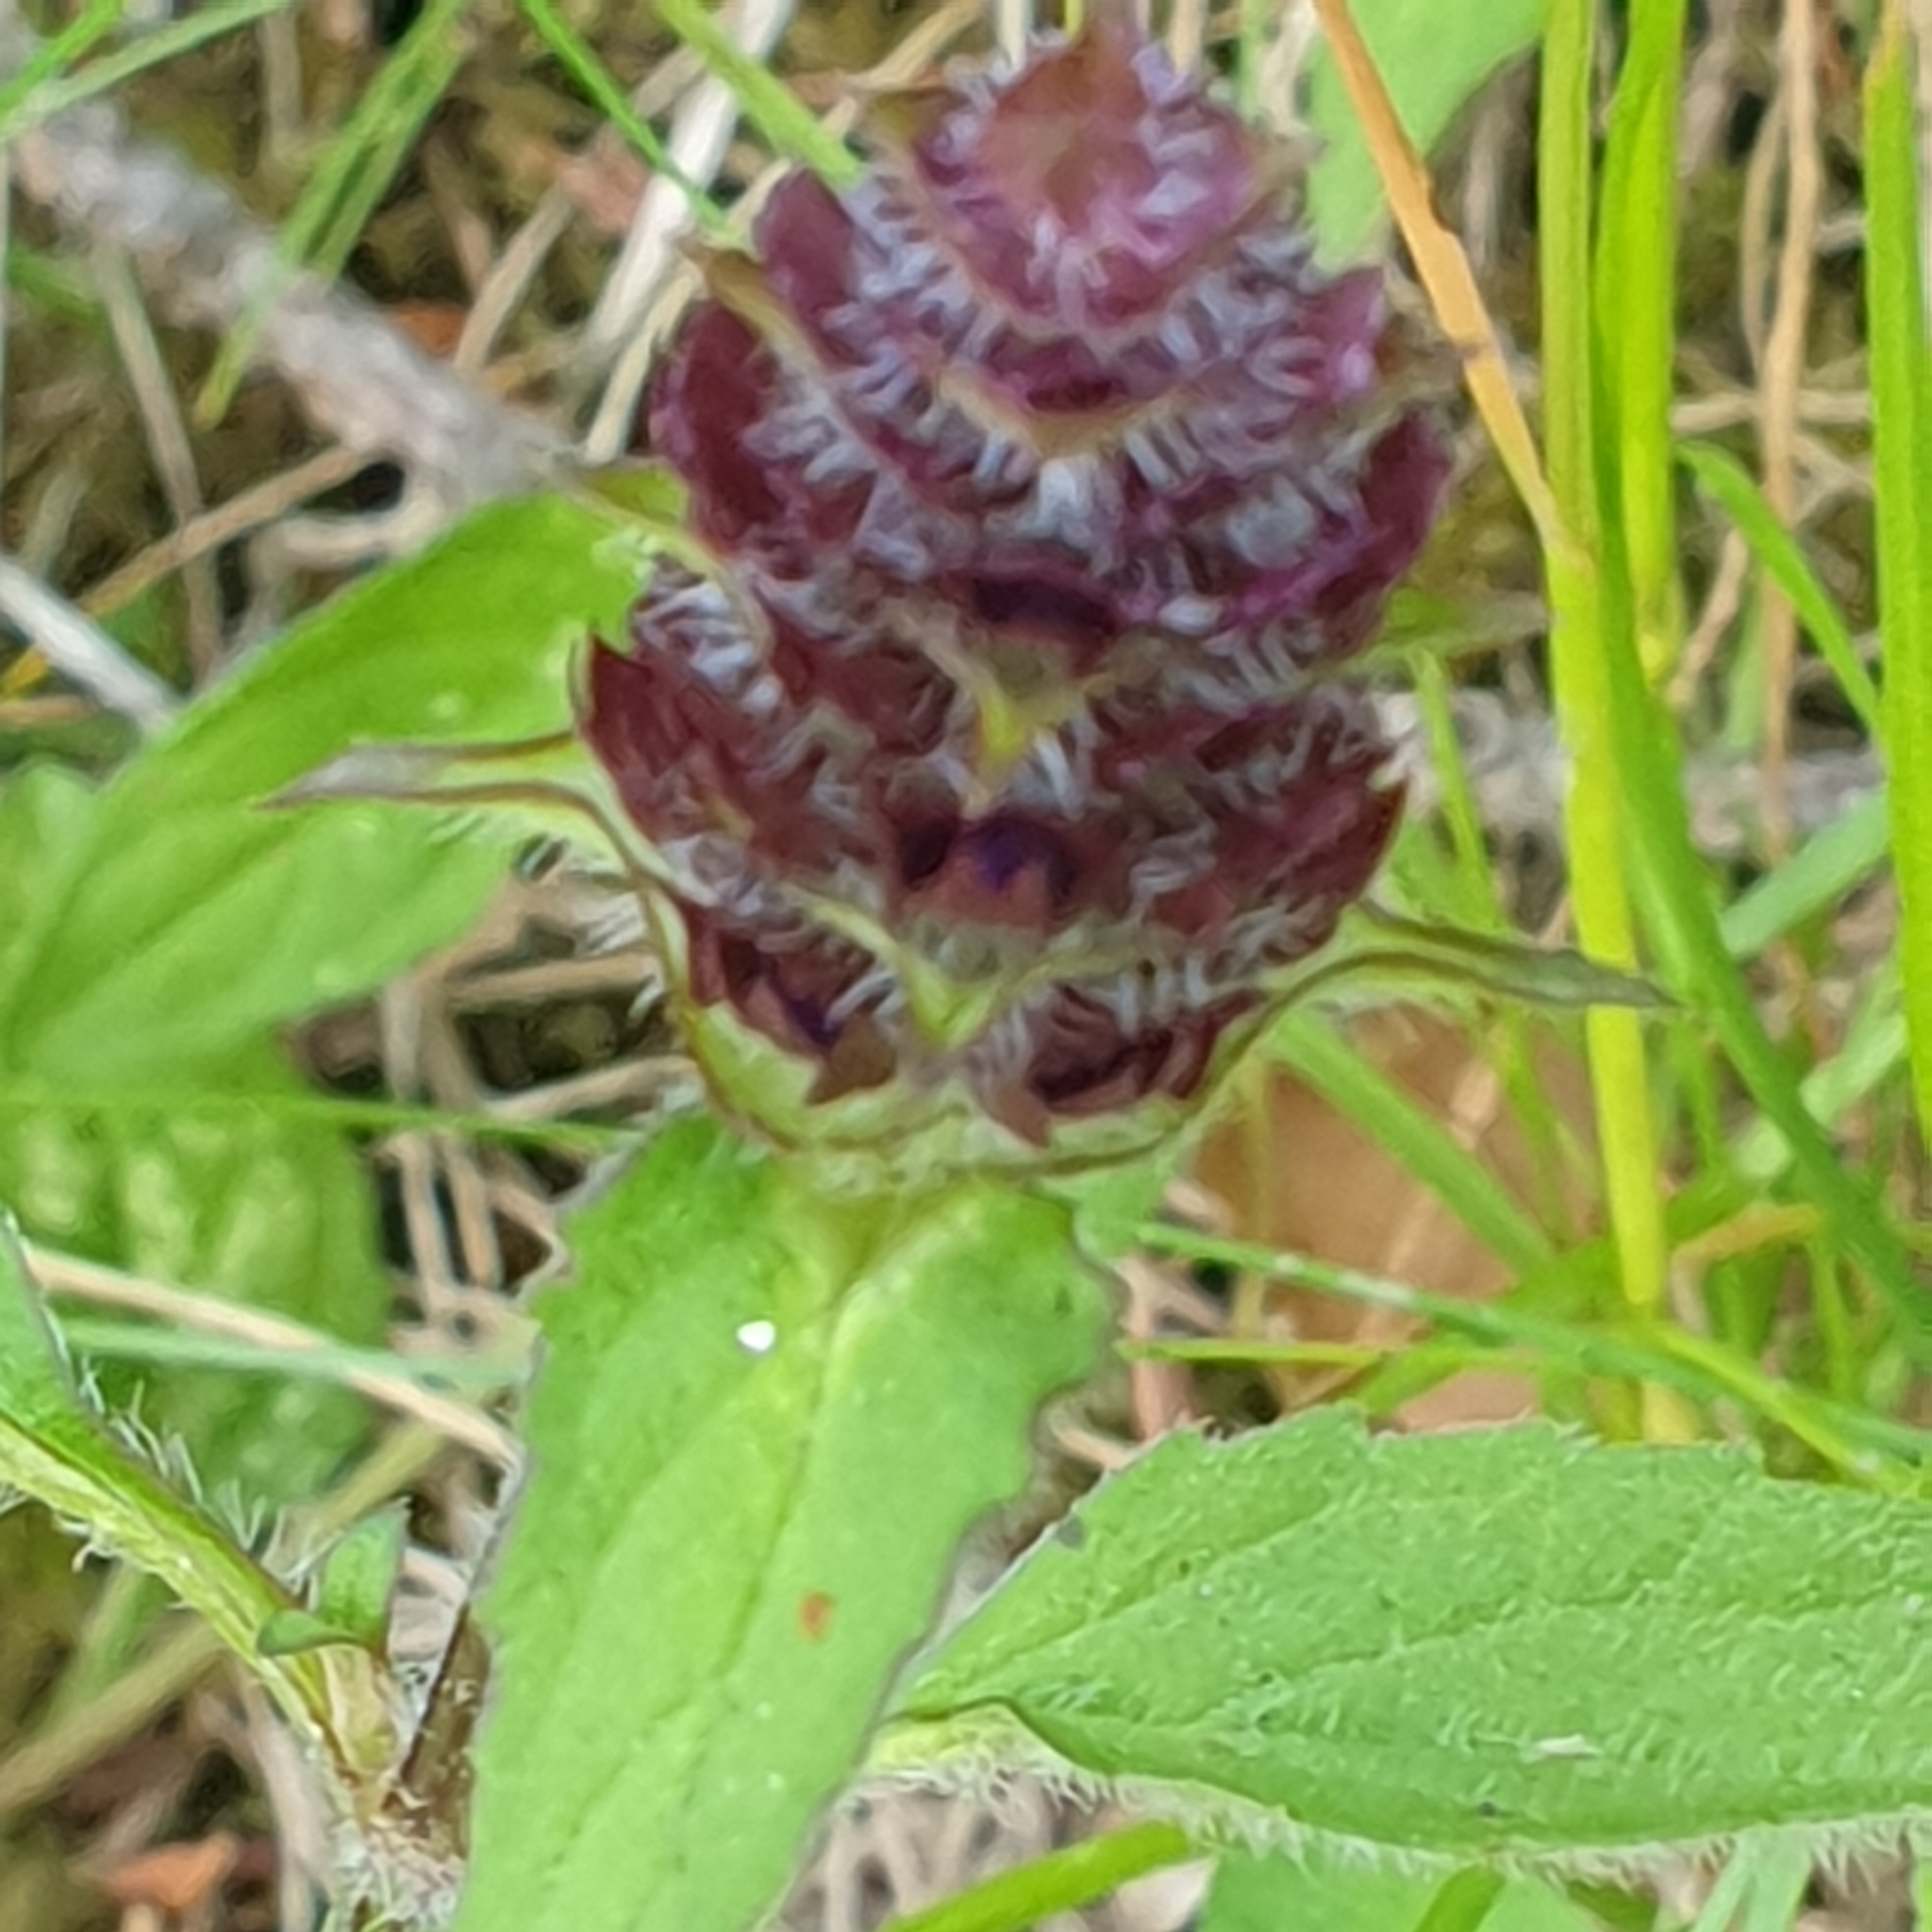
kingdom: Plantae
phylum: Tracheophyta
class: Magnoliopsida
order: Lamiales
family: Lamiaceae
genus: Prunella
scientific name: Prunella vulgaris
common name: Heal-all
